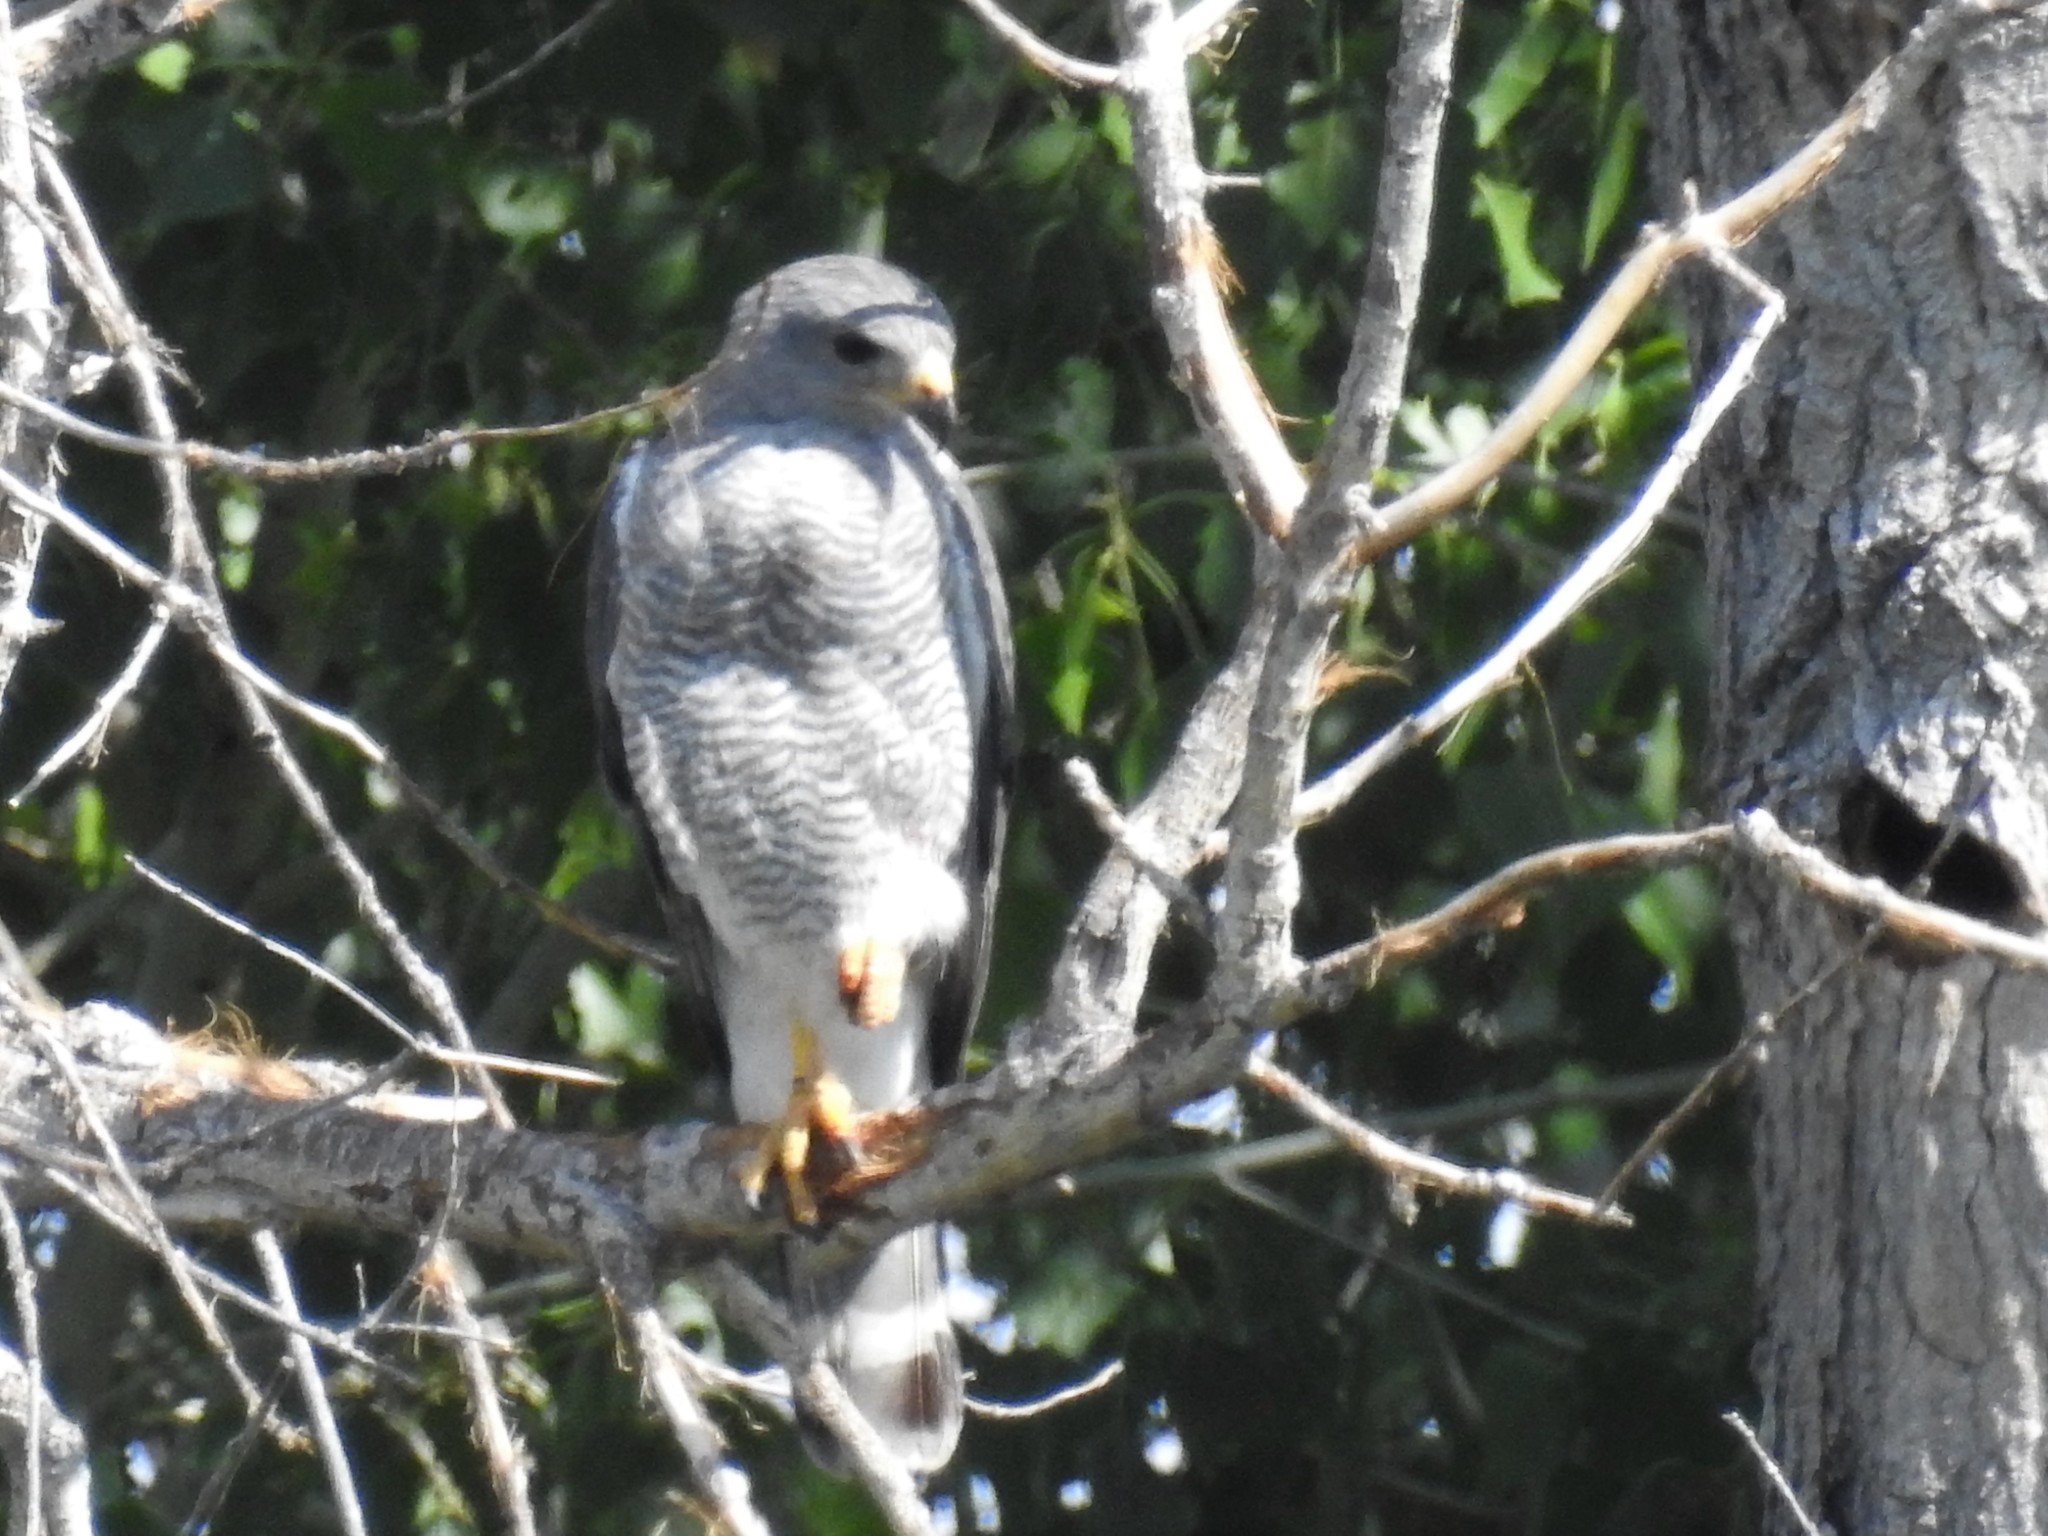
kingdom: Animalia
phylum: Chordata
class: Aves
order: Accipitriformes
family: Accipitridae
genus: Buteo
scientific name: Buteo nitidus
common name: Grey-lined hawk
